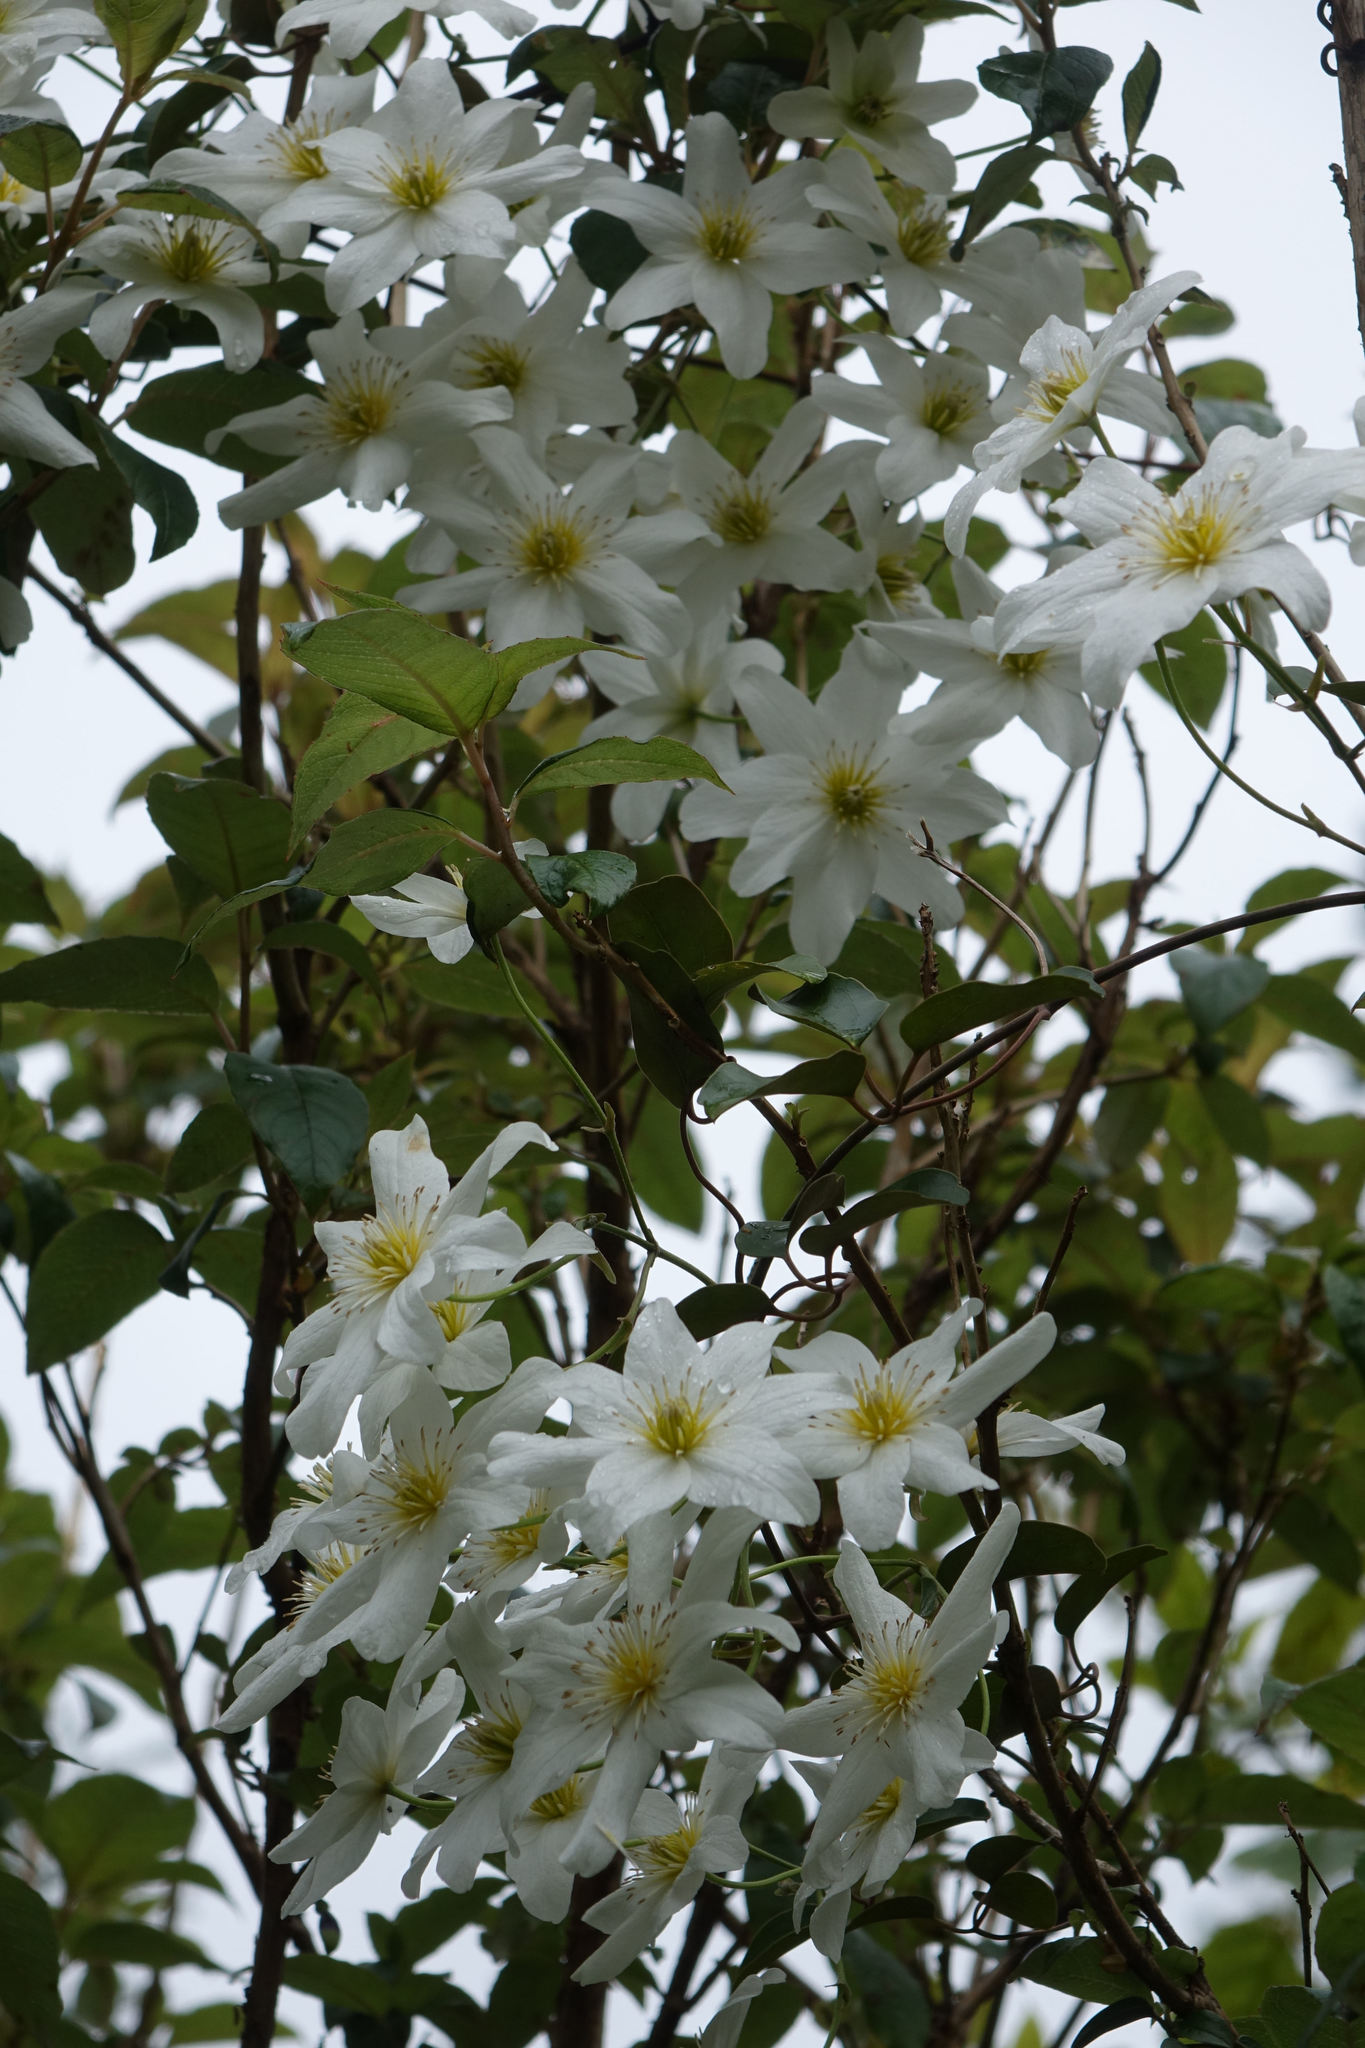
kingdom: Plantae
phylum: Tracheophyta
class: Magnoliopsida
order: Ranunculales
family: Ranunculaceae
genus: Clematis
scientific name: Clematis paniculata
